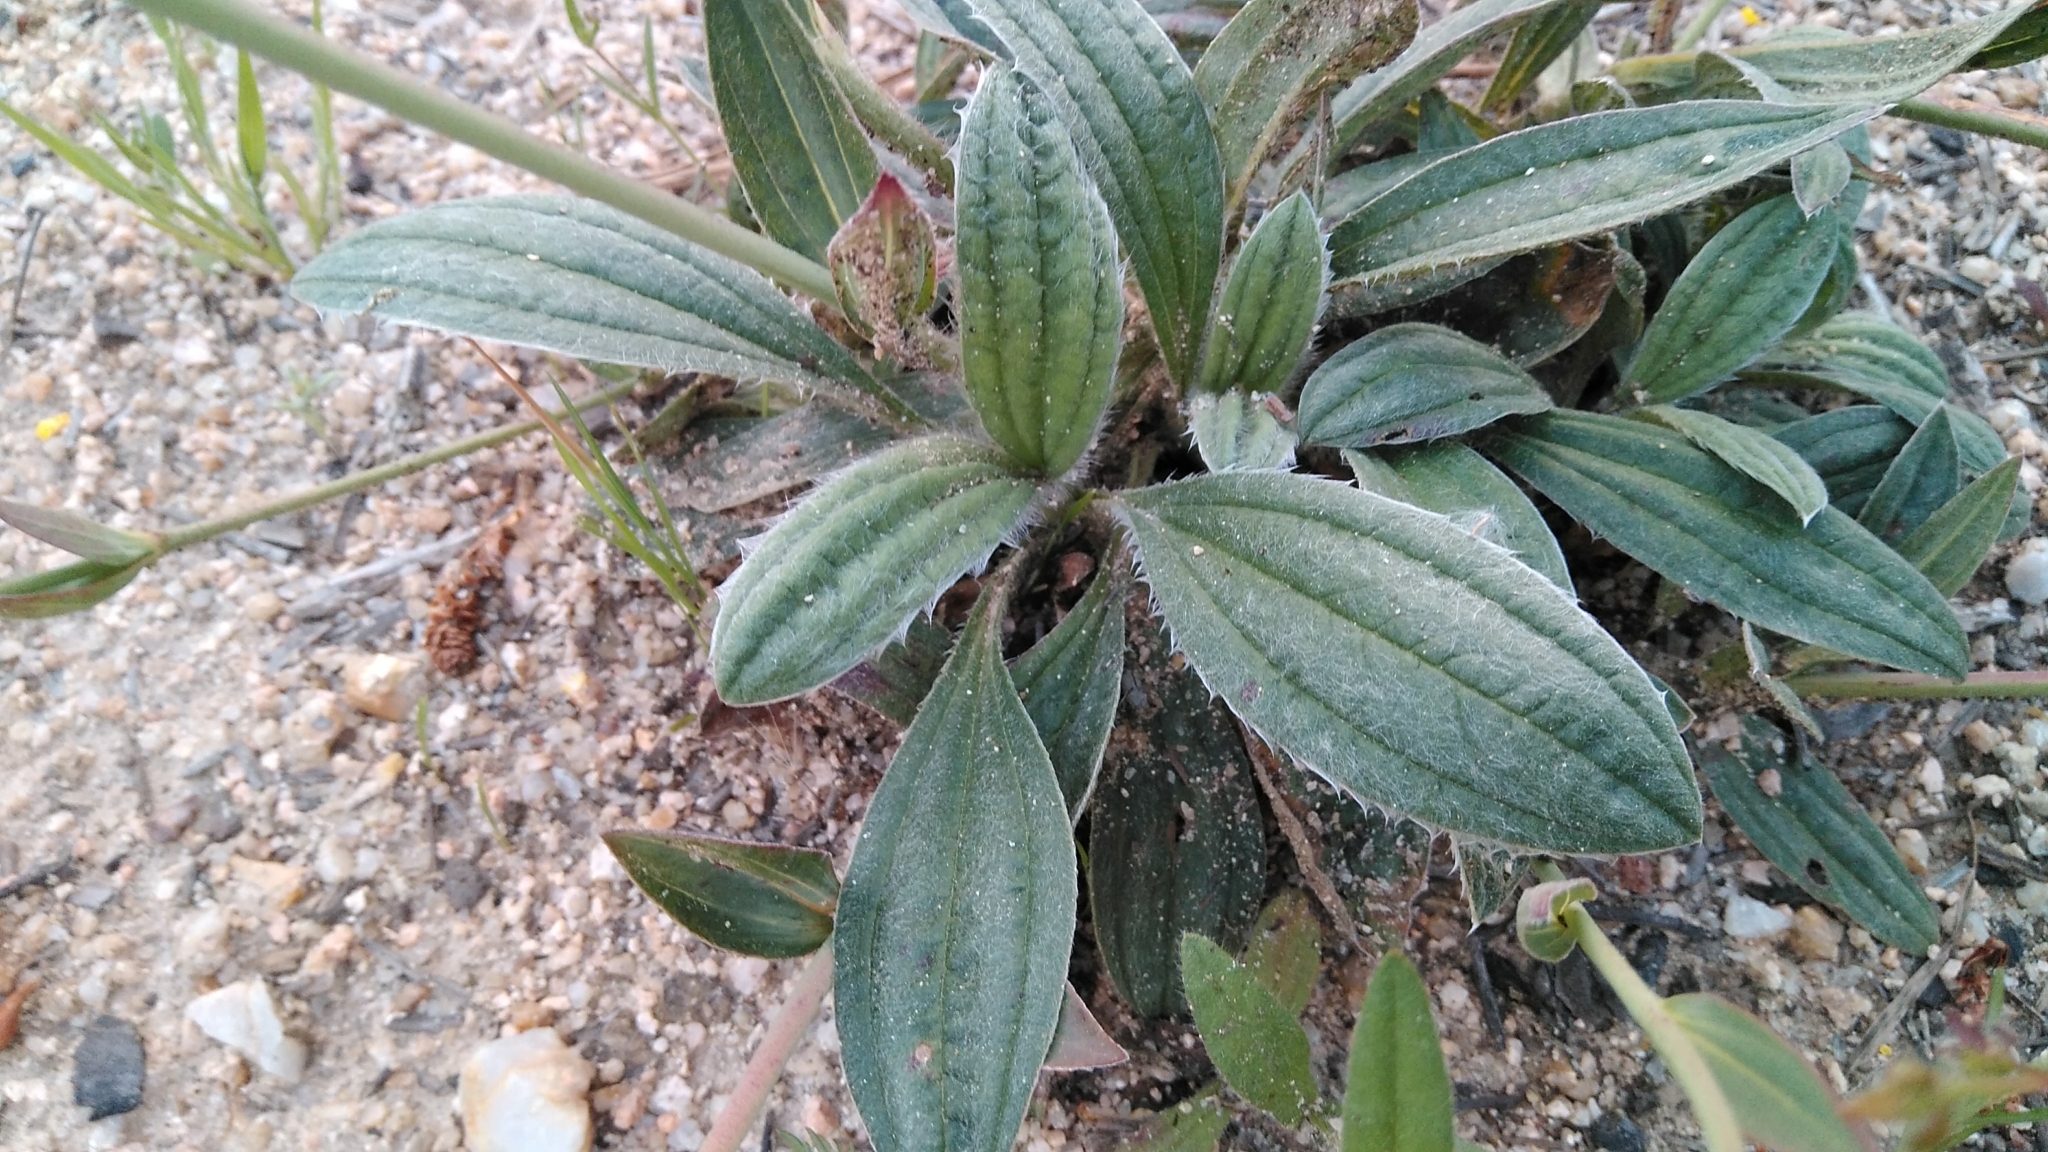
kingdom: Plantae
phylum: Tracheophyta
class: Magnoliopsida
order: Malvales
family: Cistaceae
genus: Tuberaria
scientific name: Tuberaria lignosa
